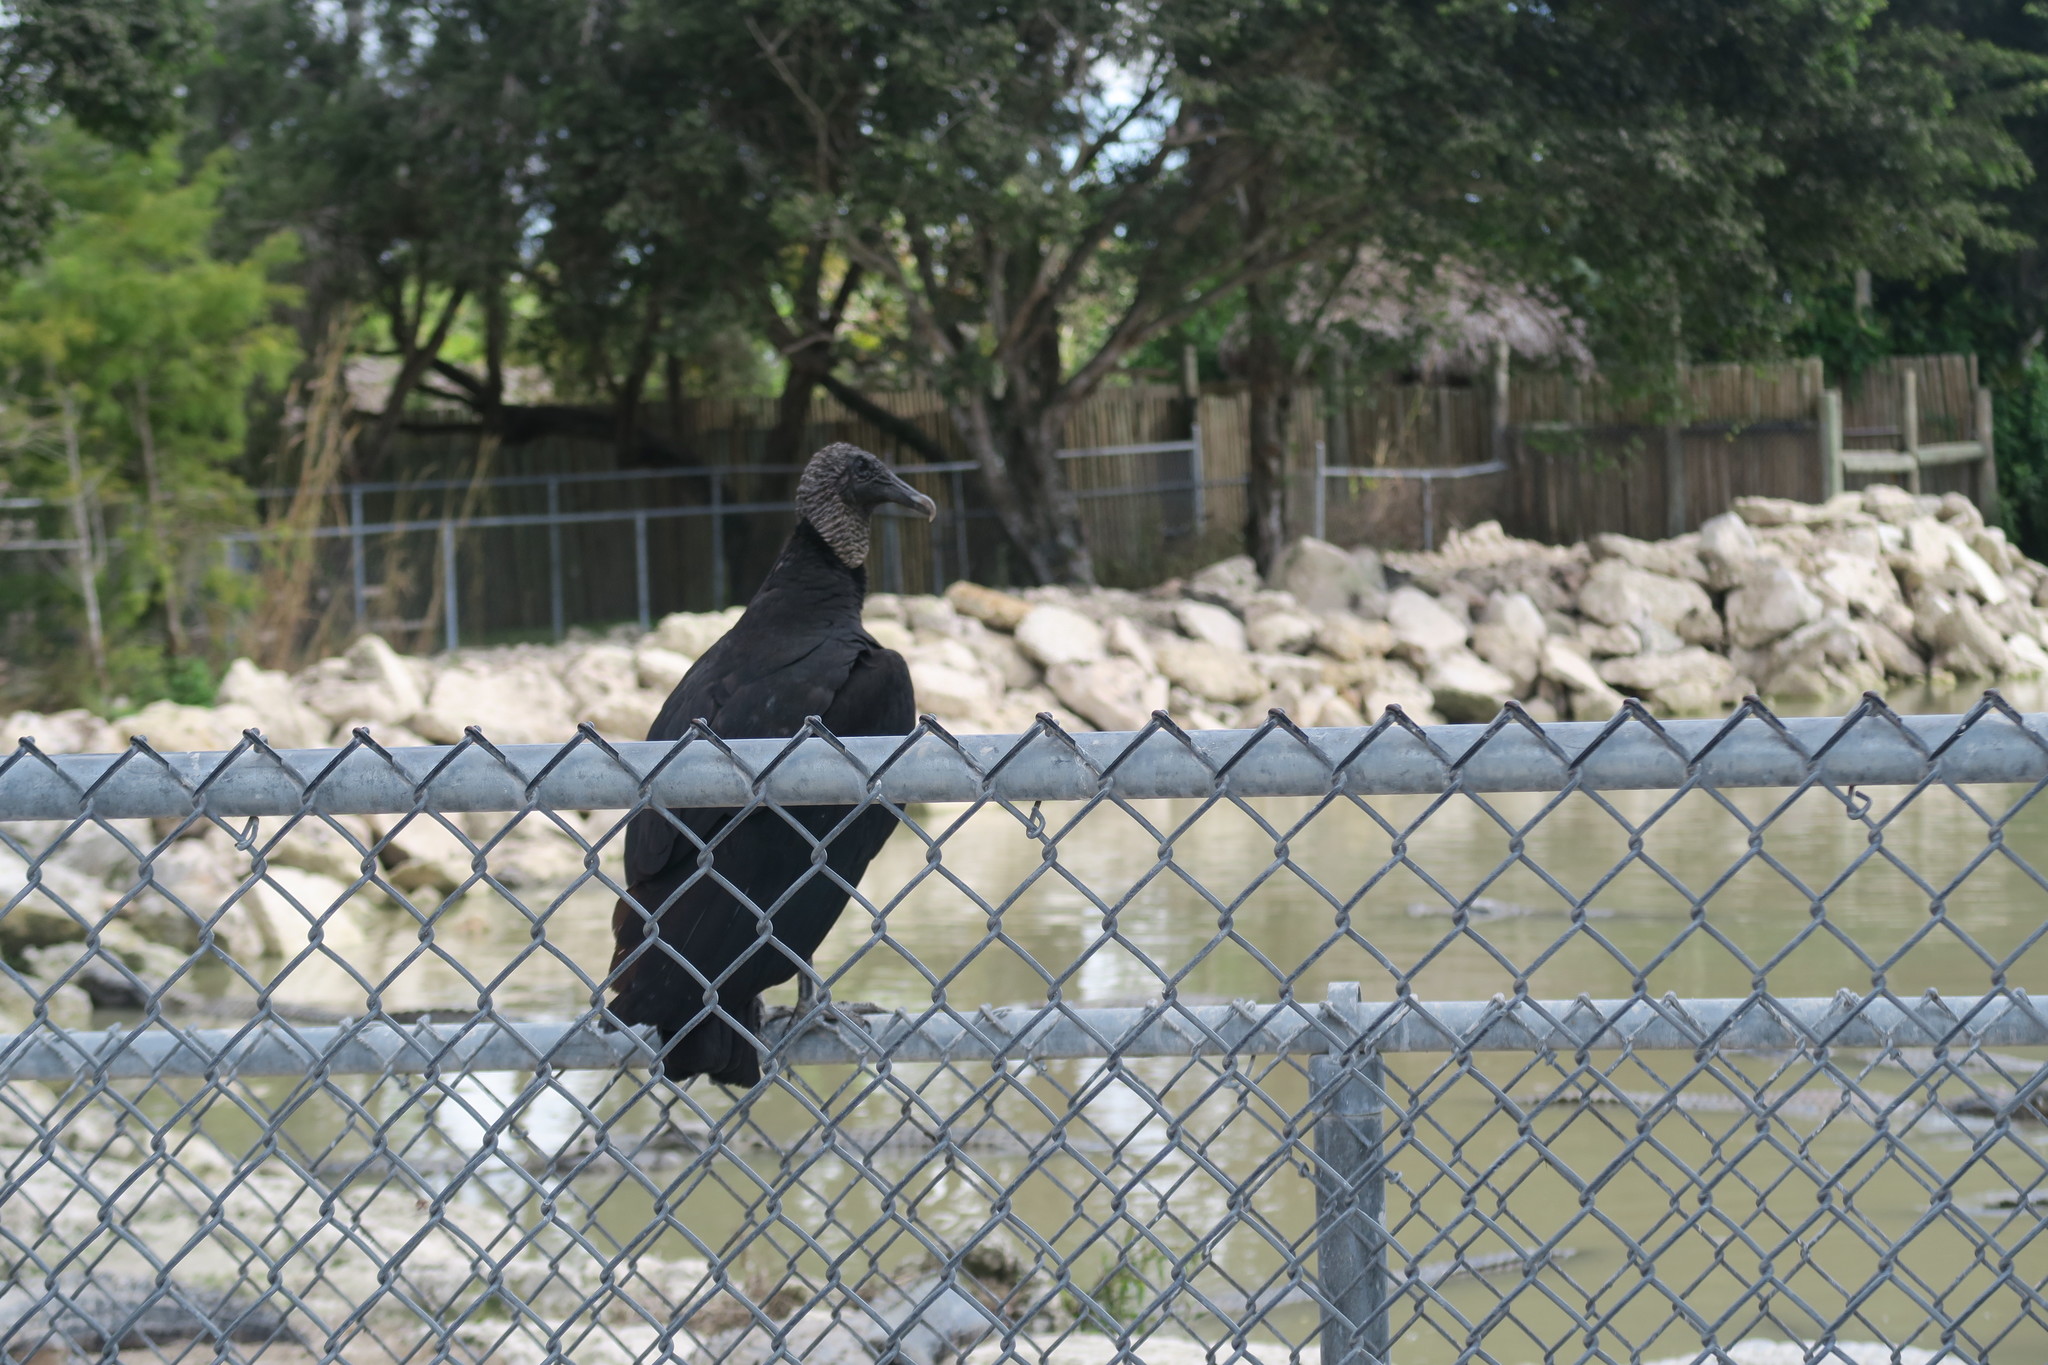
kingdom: Animalia
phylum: Chordata
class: Aves
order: Accipitriformes
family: Cathartidae
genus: Coragyps
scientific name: Coragyps atratus
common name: Black vulture
